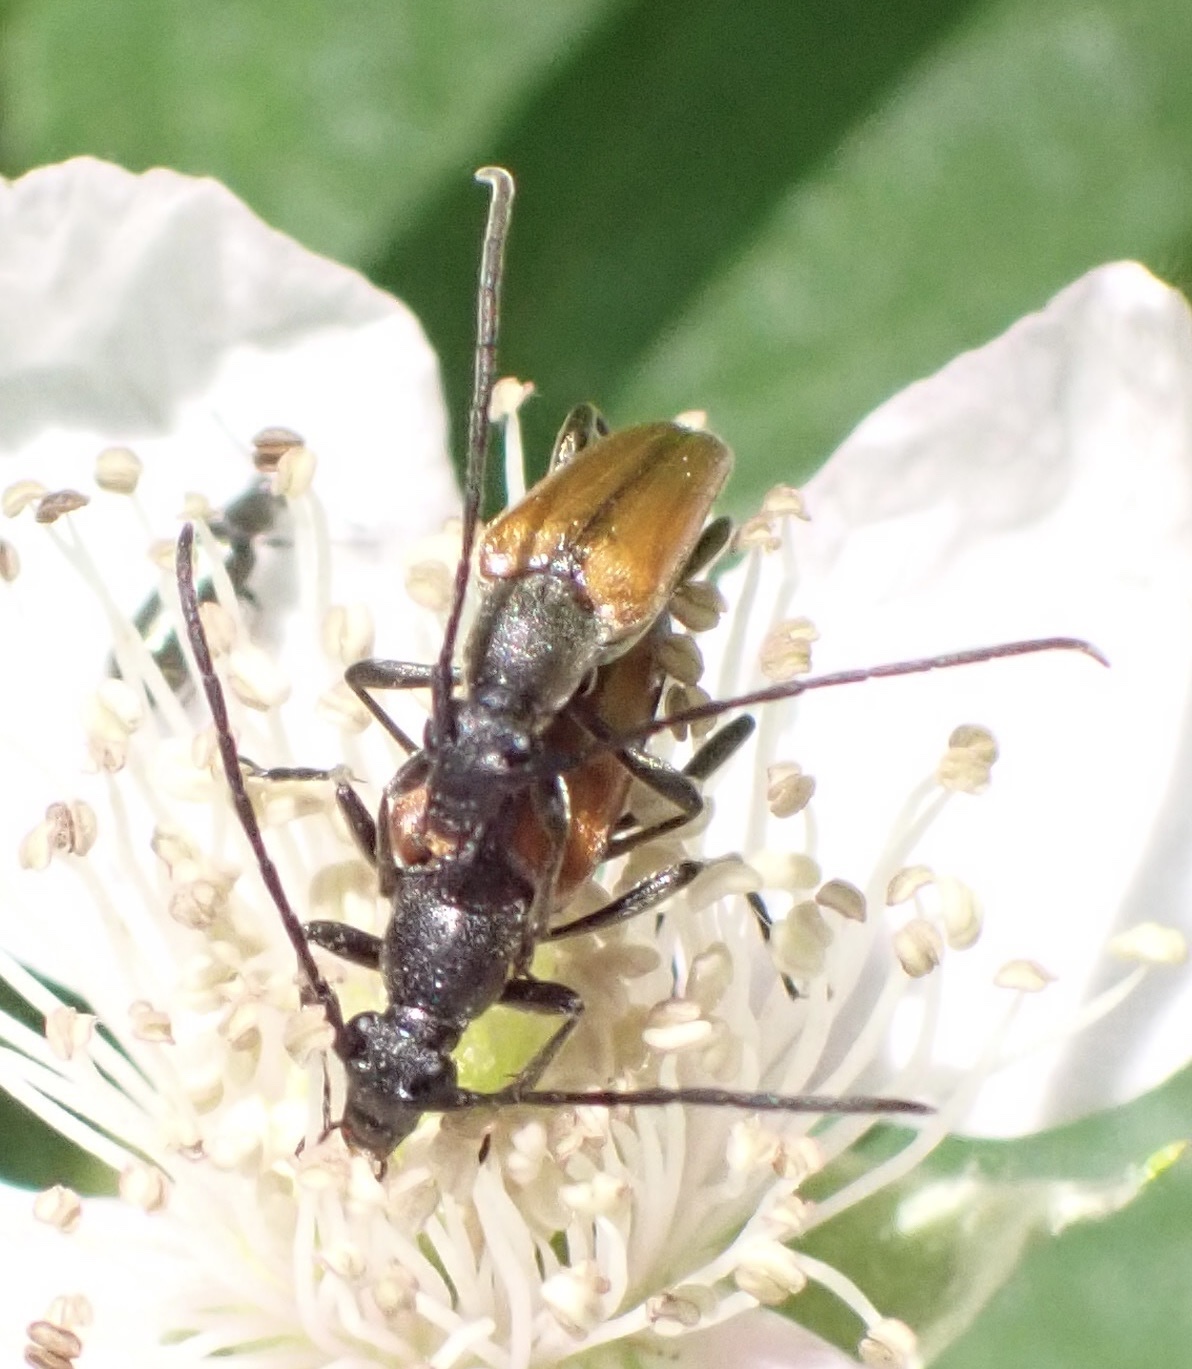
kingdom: Animalia
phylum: Arthropoda
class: Insecta
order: Coleoptera
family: Cerambycidae
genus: Stenurella
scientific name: Stenurella melanura
